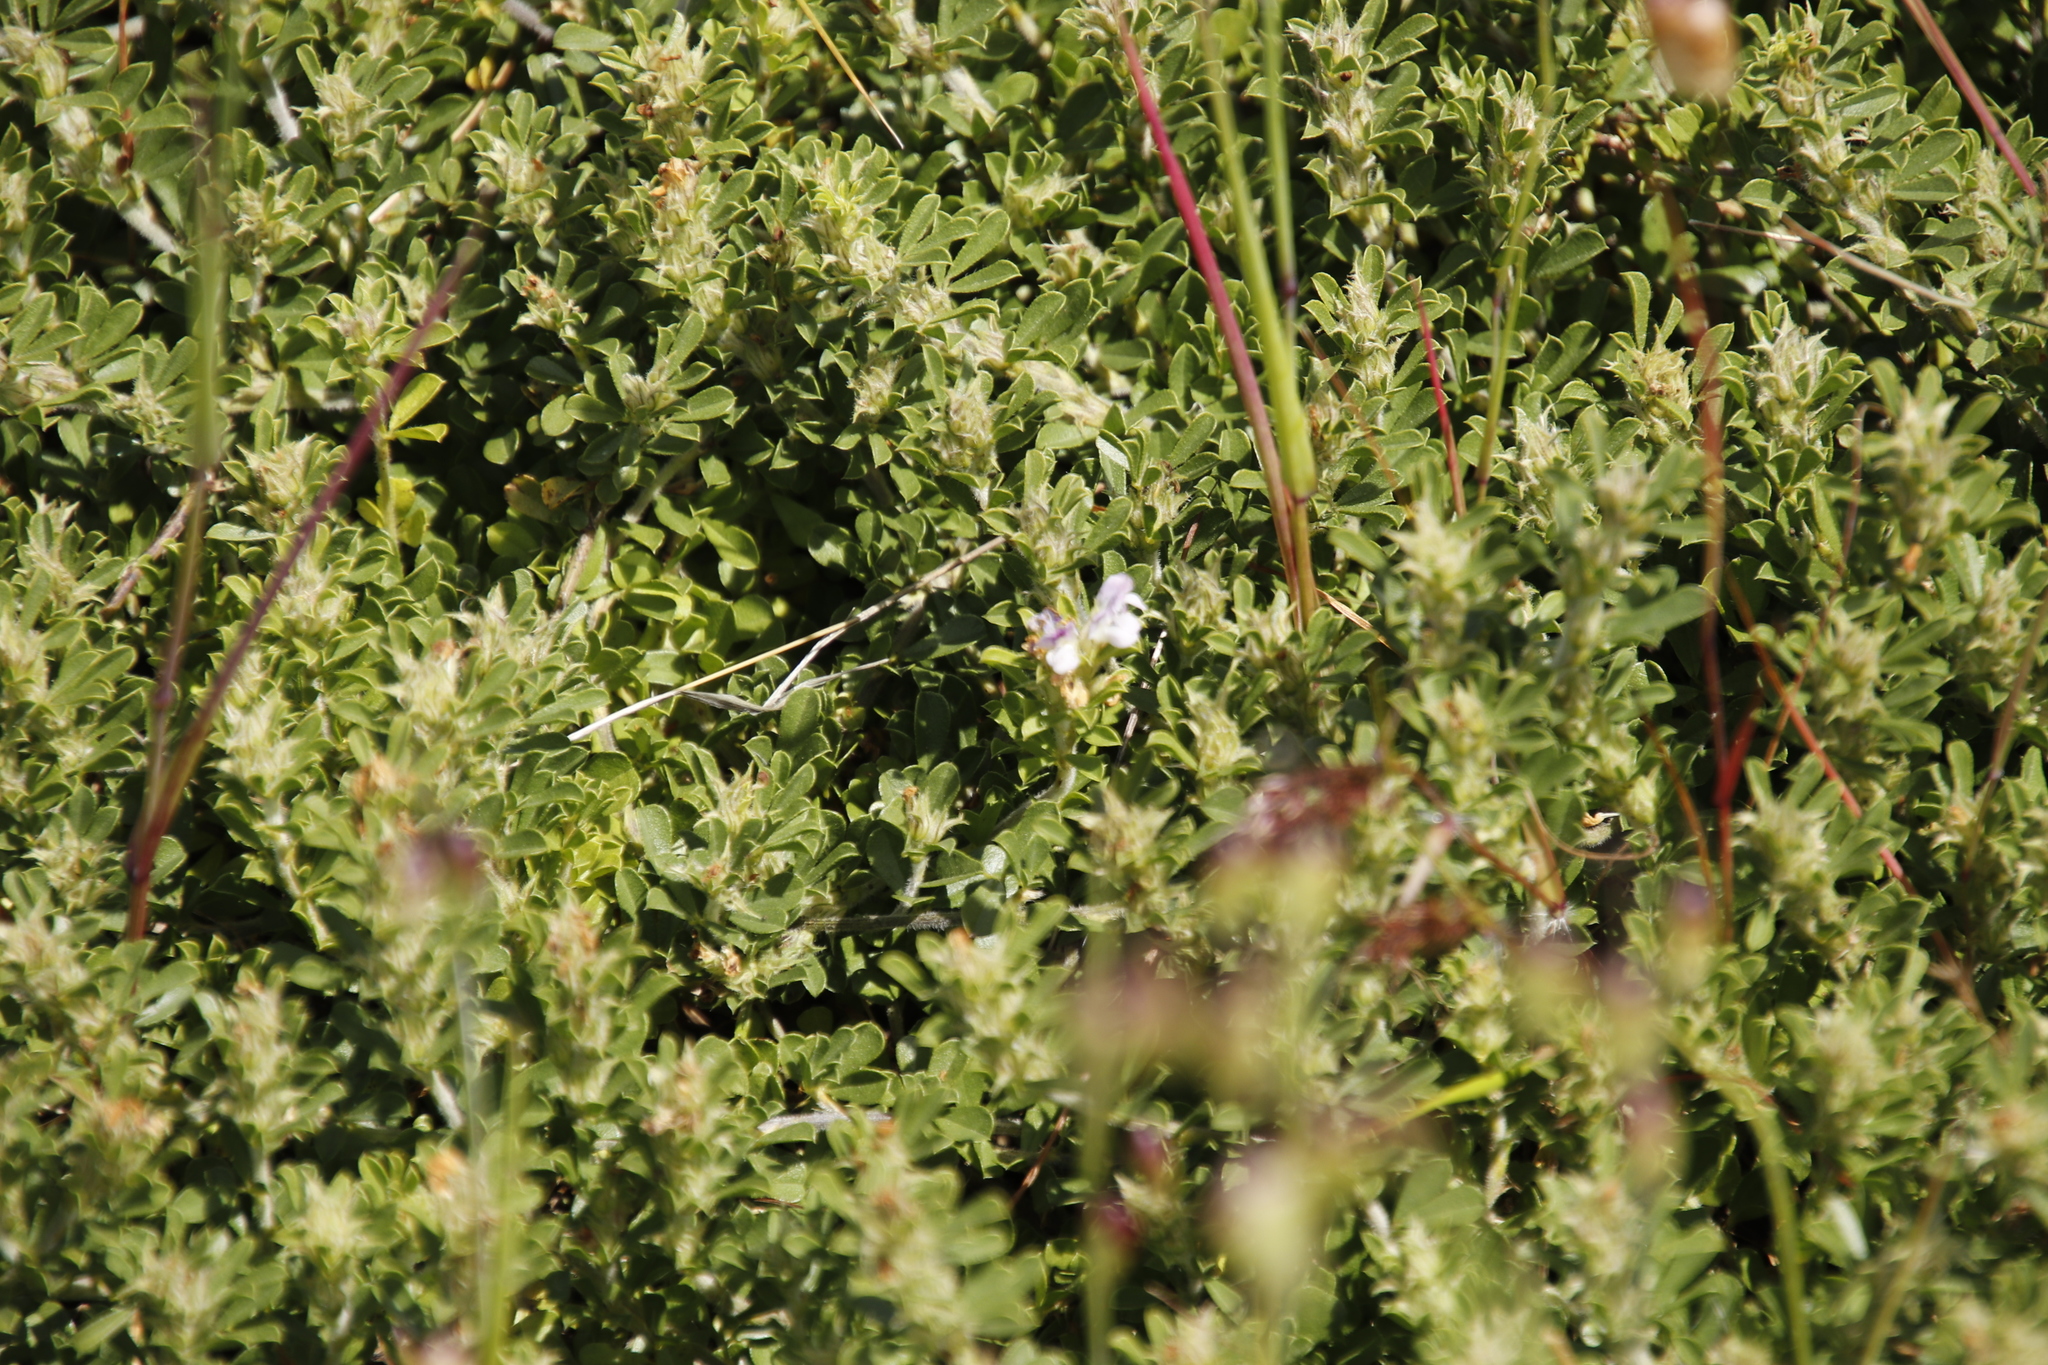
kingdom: Plantae
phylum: Tracheophyta
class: Magnoliopsida
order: Fabales
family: Fabaceae
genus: Psoralea
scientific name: Psoralea
